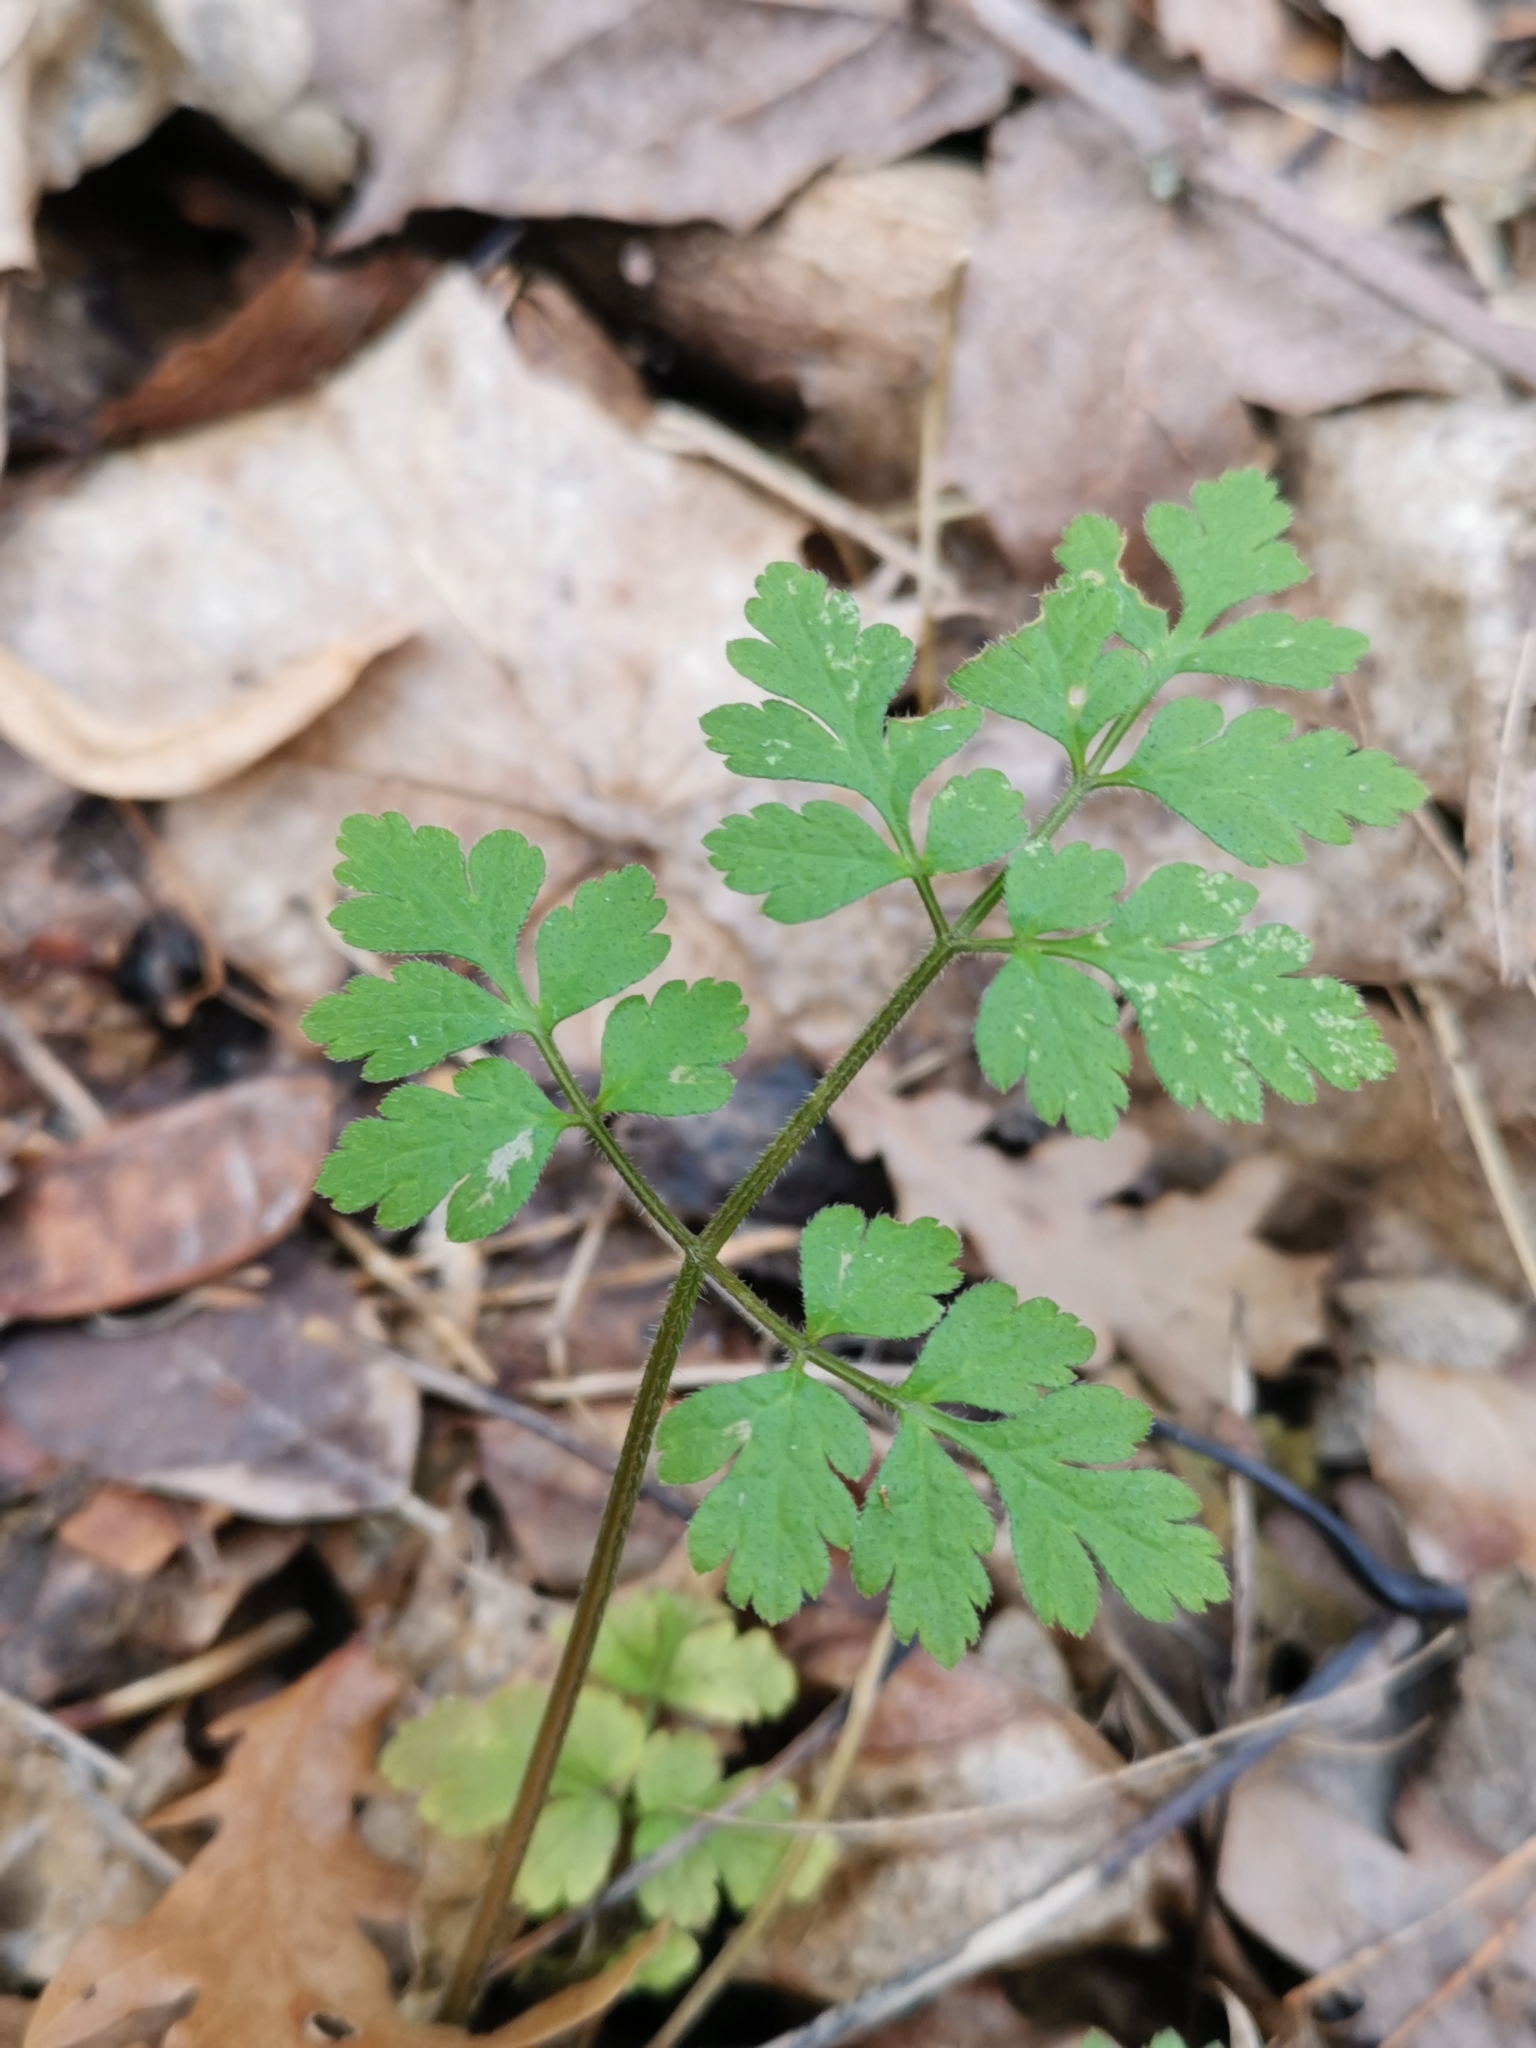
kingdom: Plantae
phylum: Tracheophyta
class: Magnoliopsida
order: Apiales
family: Apiaceae
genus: Chaerophyllum
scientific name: Chaerophyllum temulum
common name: Rough chervil
